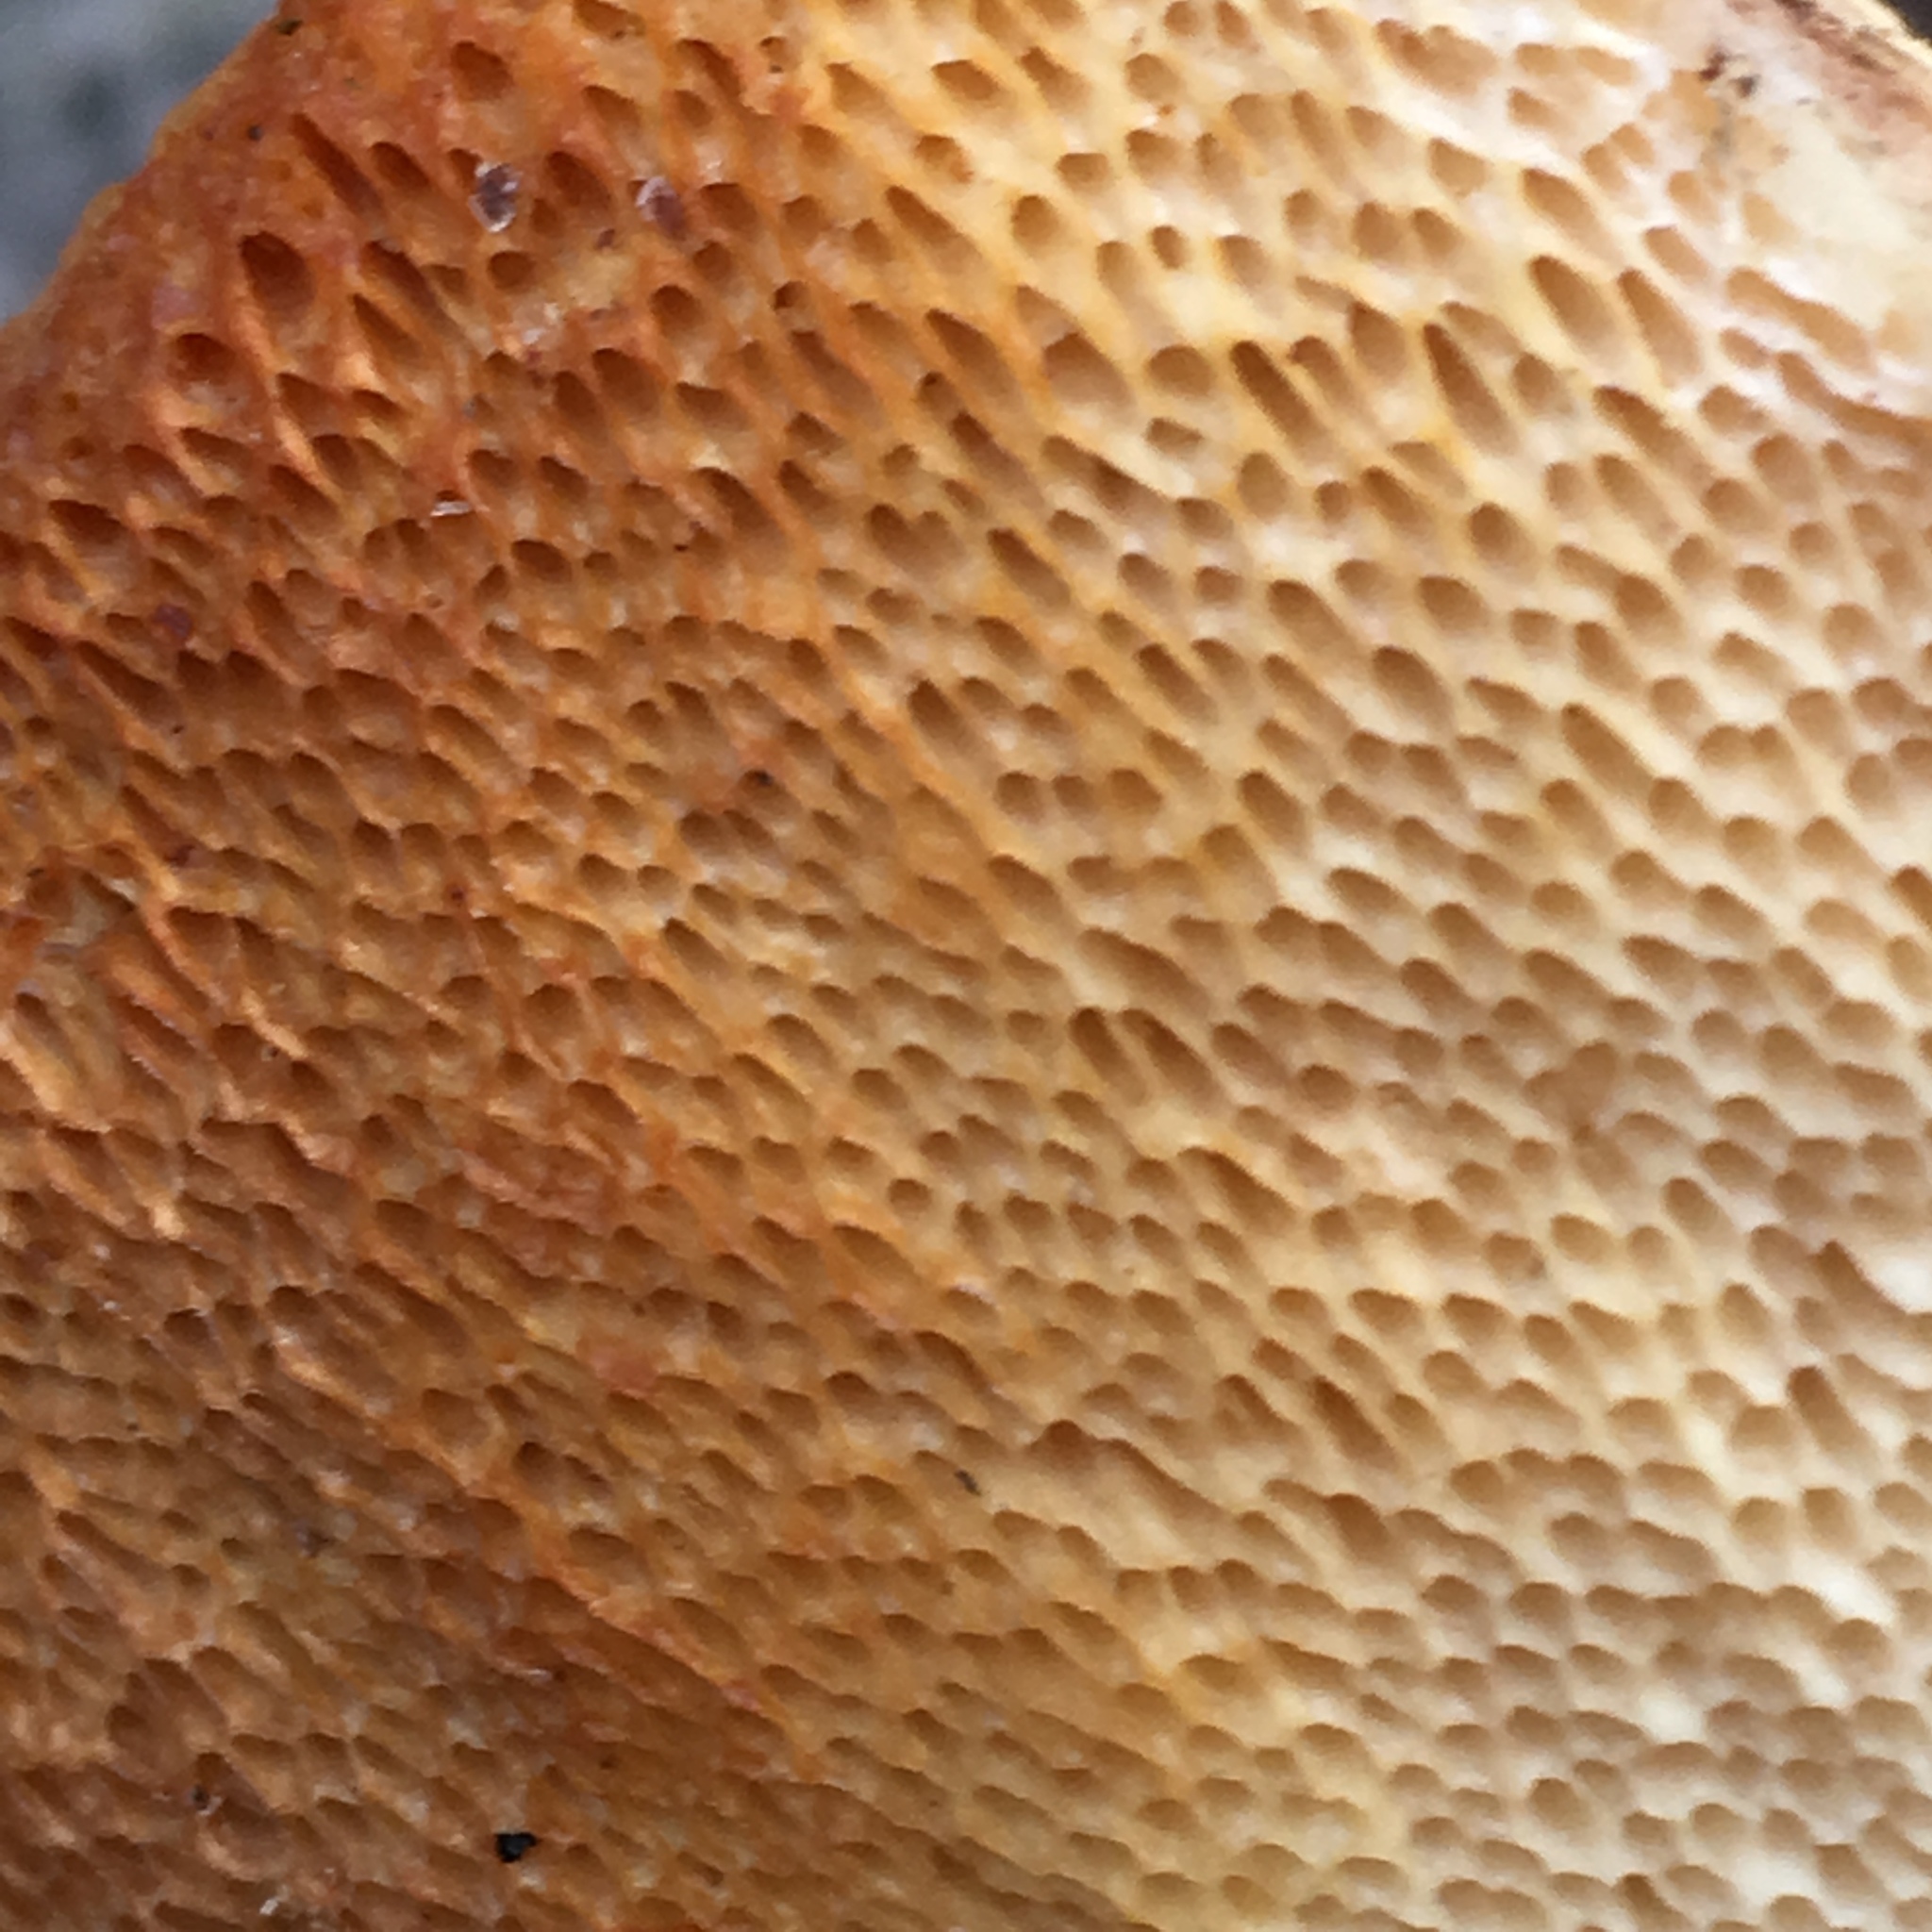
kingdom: Fungi
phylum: Basidiomycota
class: Agaricomycetes
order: Polyporales
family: Polyporaceae
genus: Trametes
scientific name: Trametes suaveolens
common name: Fragrant bracket
